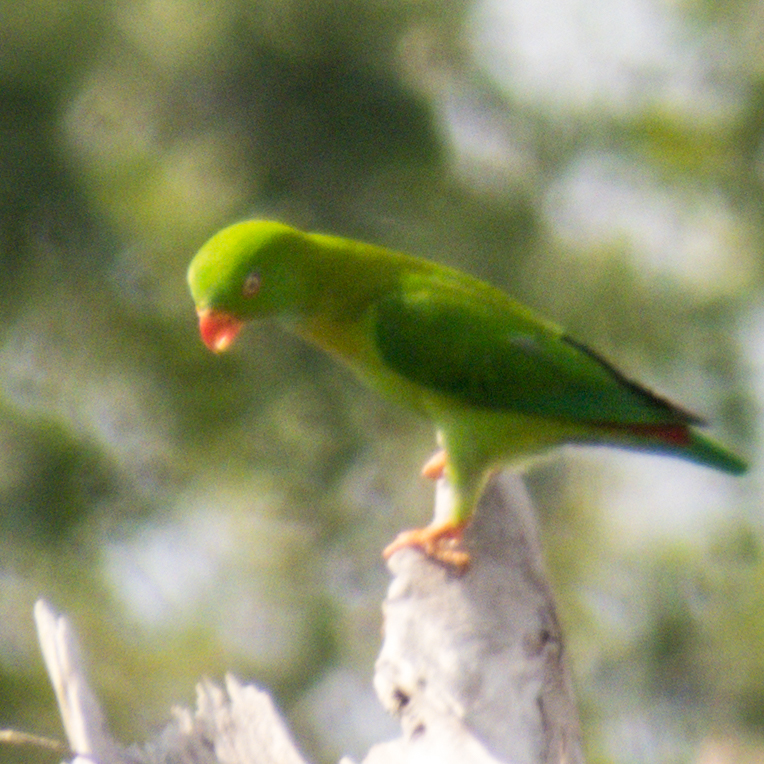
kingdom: Animalia
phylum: Chordata
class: Aves
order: Psittaciformes
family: Psittacidae
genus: Loriculus
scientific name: Loriculus vernalis
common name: Vernal hanging parrot
